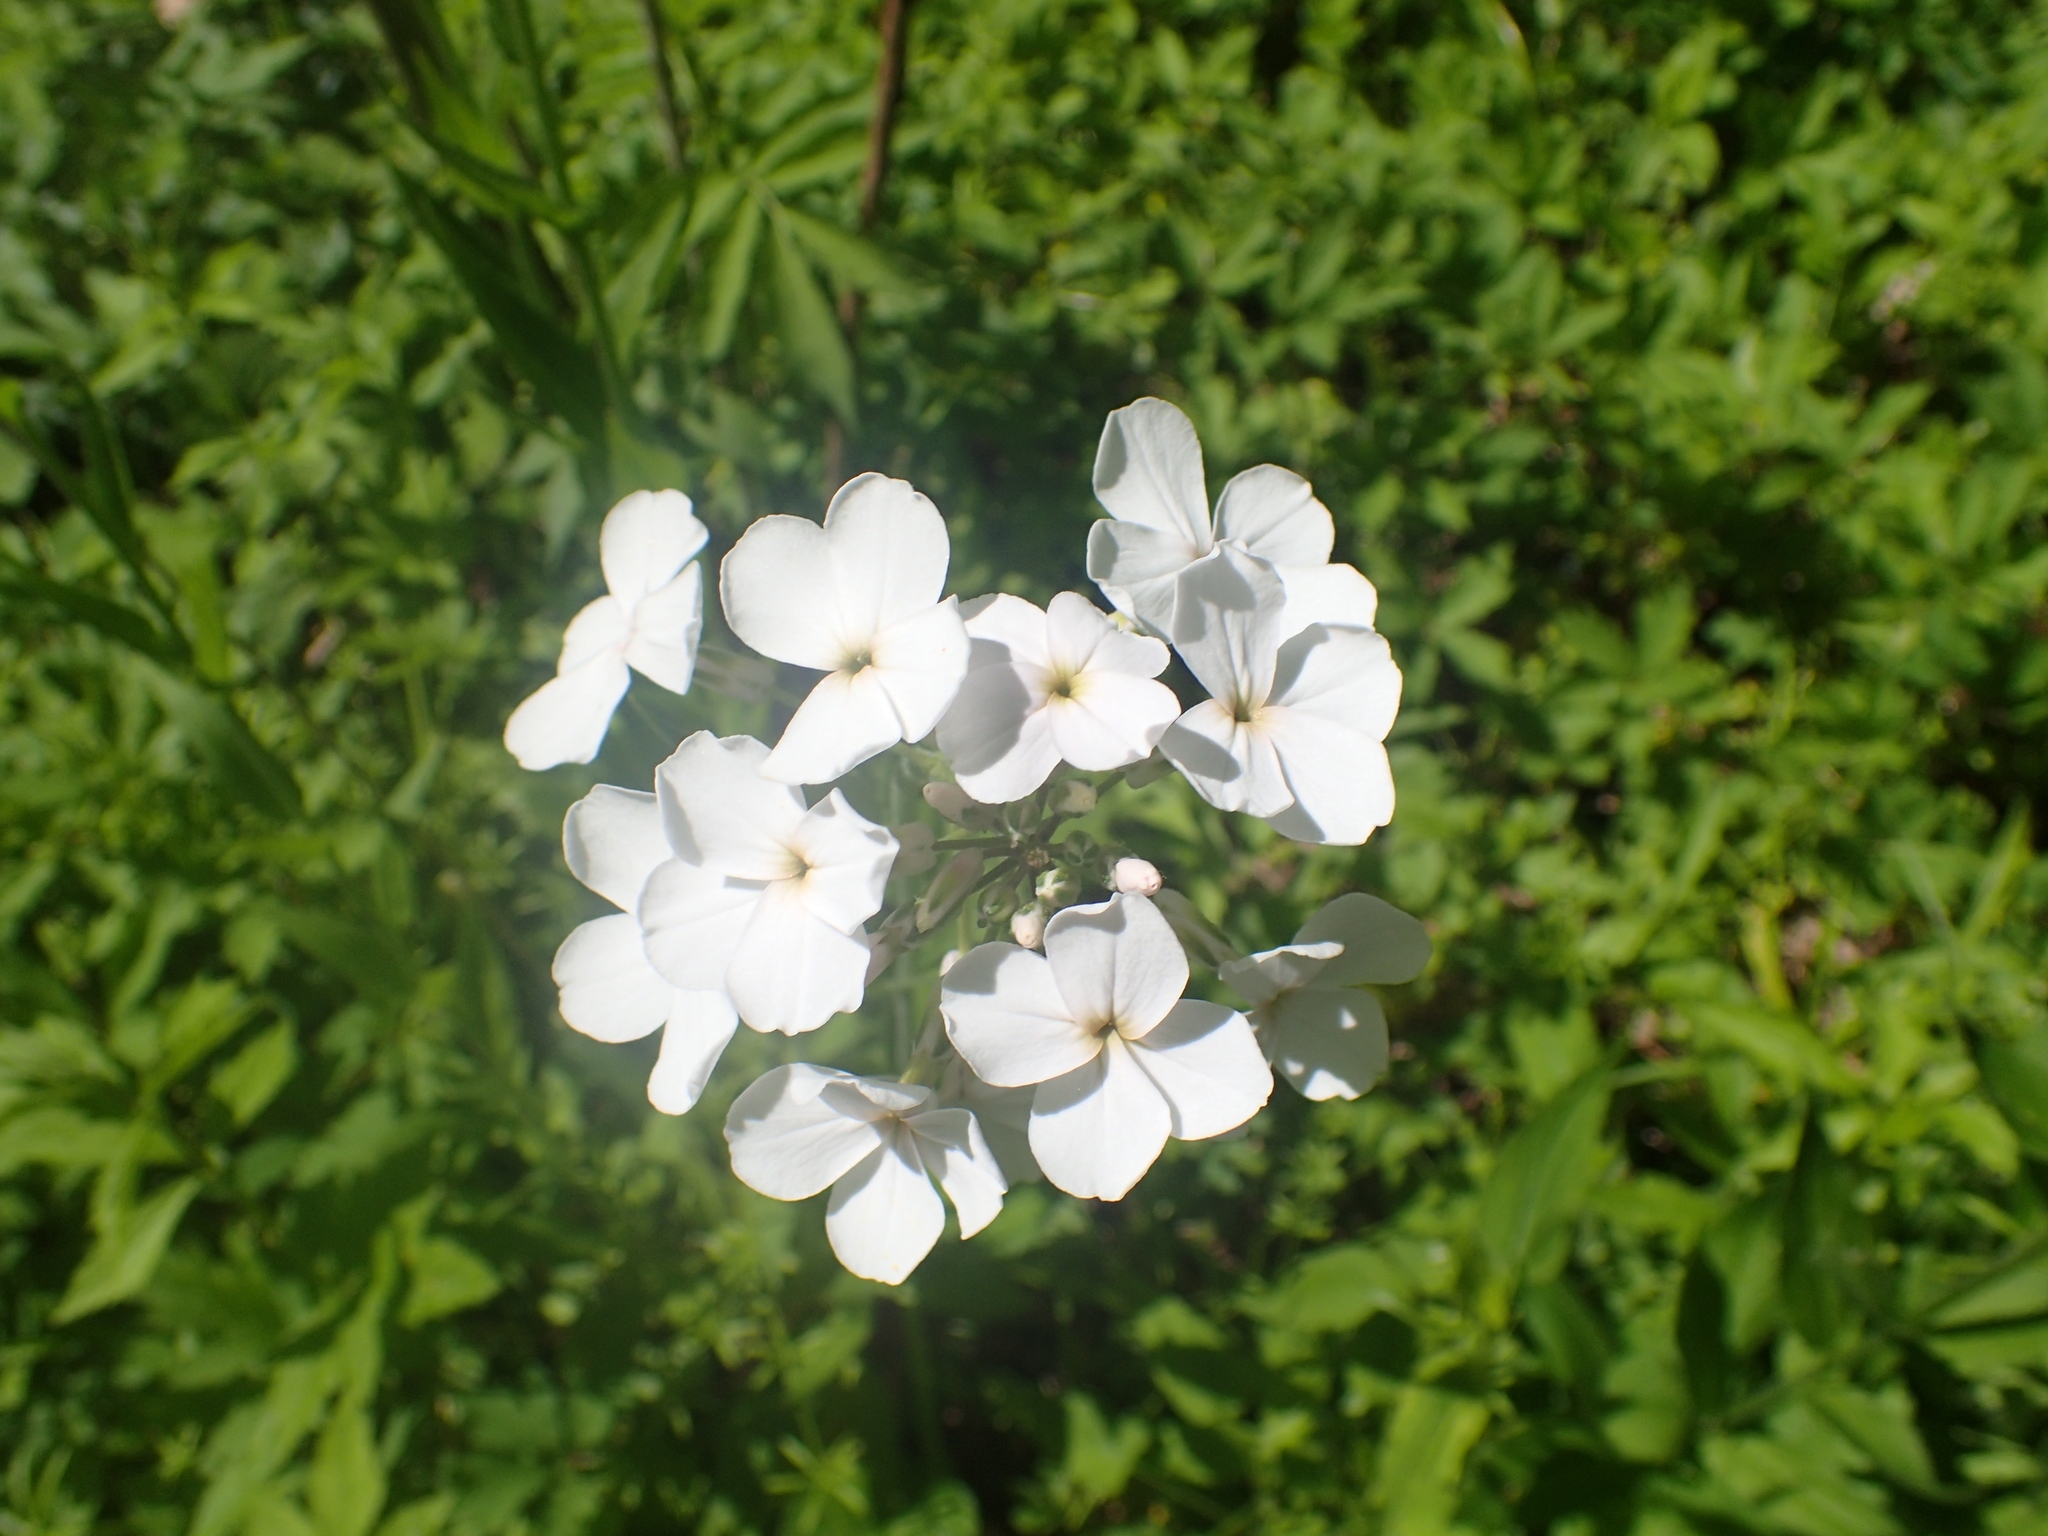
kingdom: Plantae
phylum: Tracheophyta
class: Magnoliopsida
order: Brassicales
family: Brassicaceae
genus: Hesperis
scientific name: Hesperis matronalis
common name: Dame's-violet
